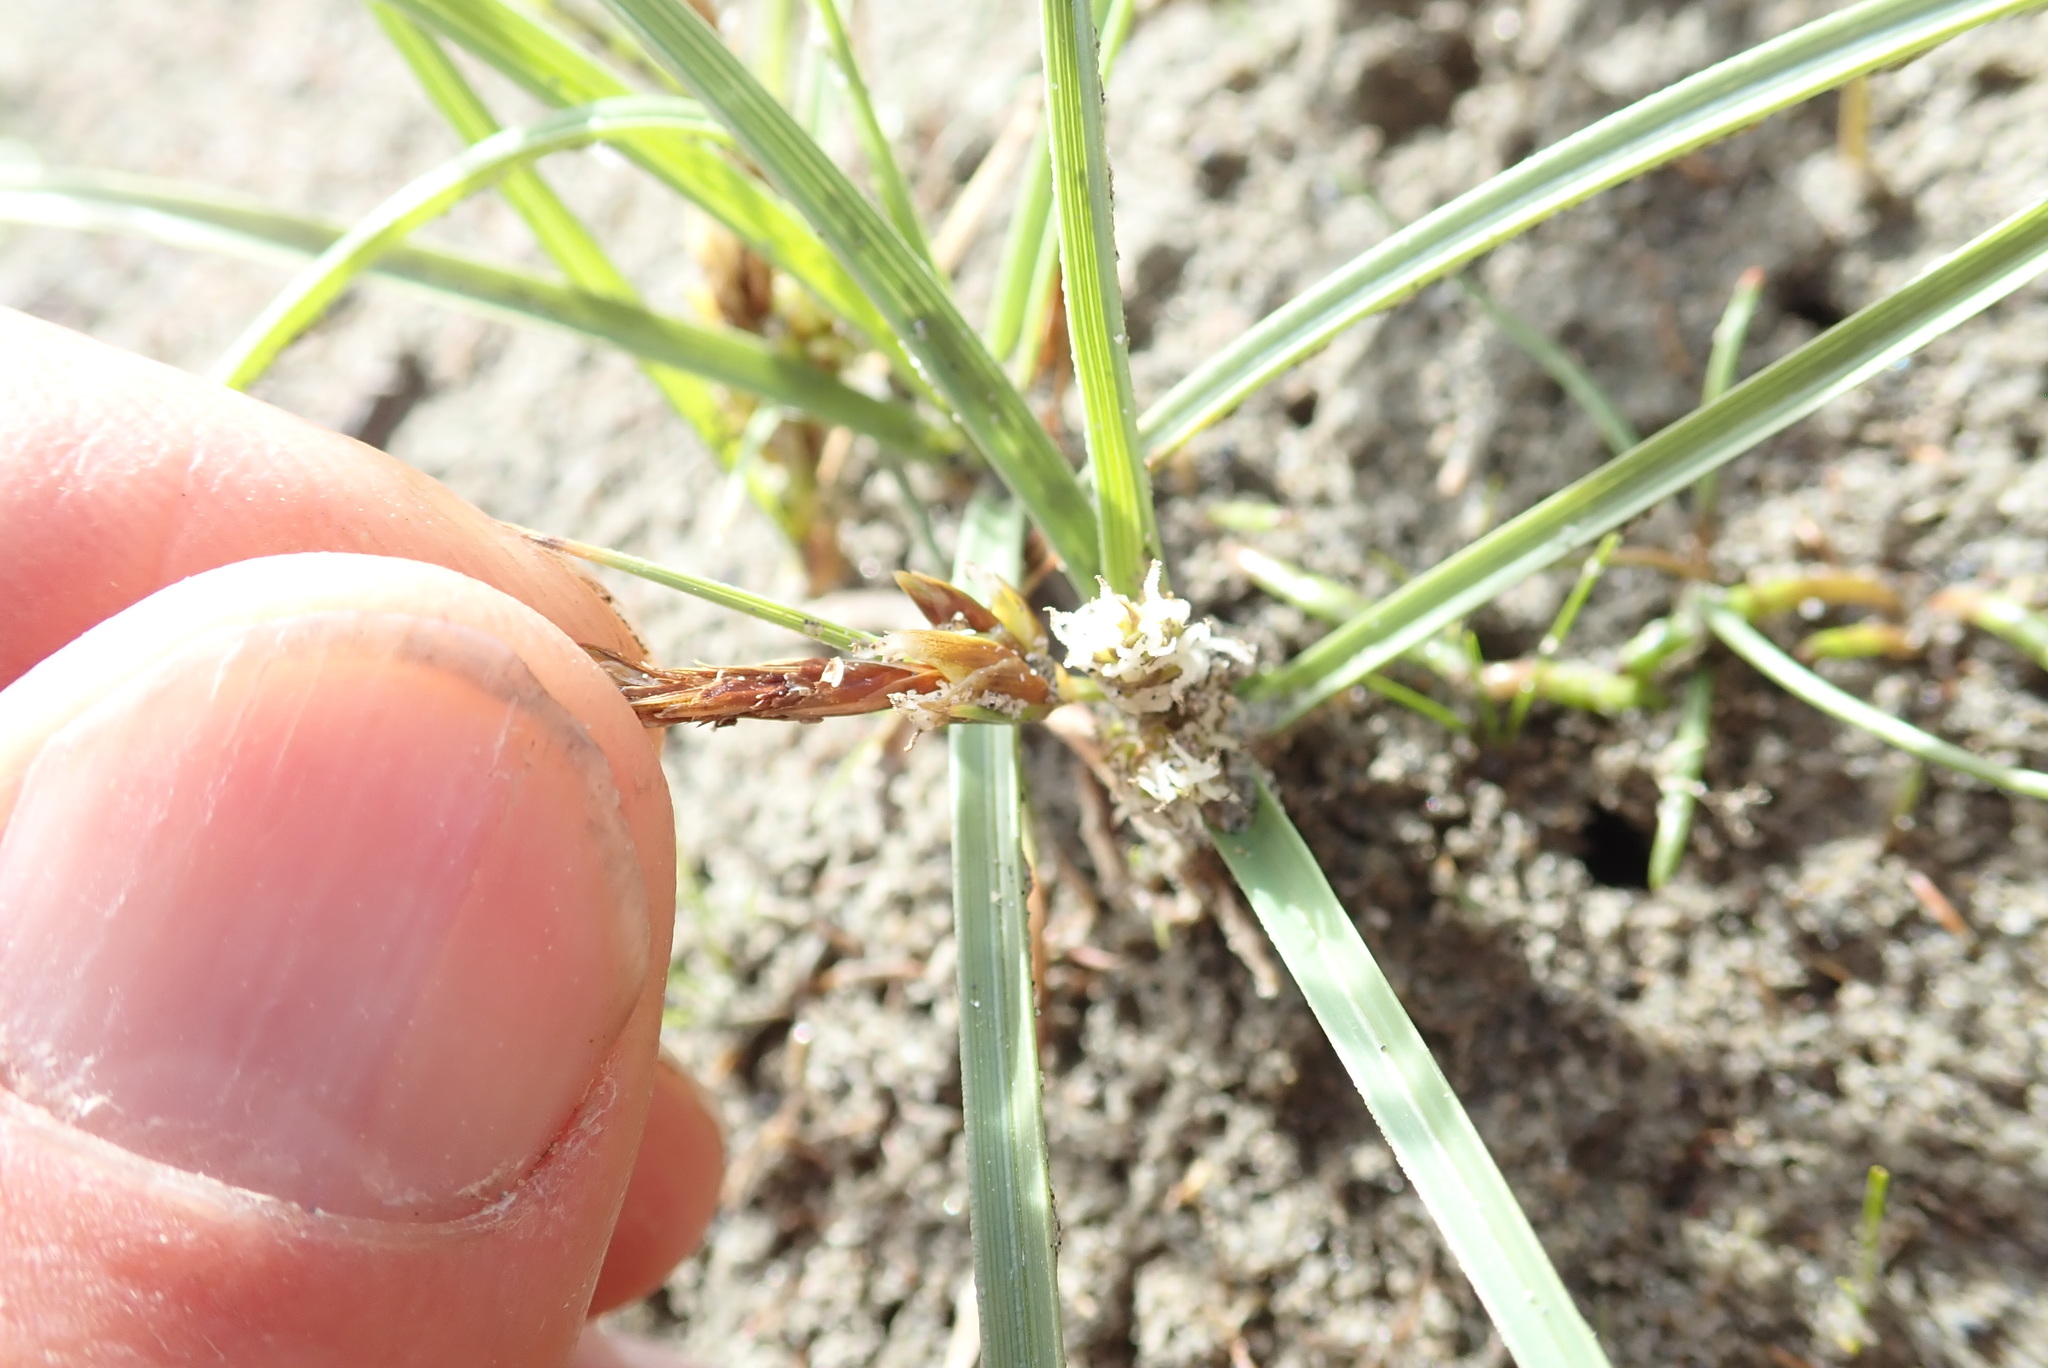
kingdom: Plantae
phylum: Tracheophyta
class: Liliopsida
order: Poales
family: Cyperaceae
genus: Carex
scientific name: Carex pumila
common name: Dwarf sedge
